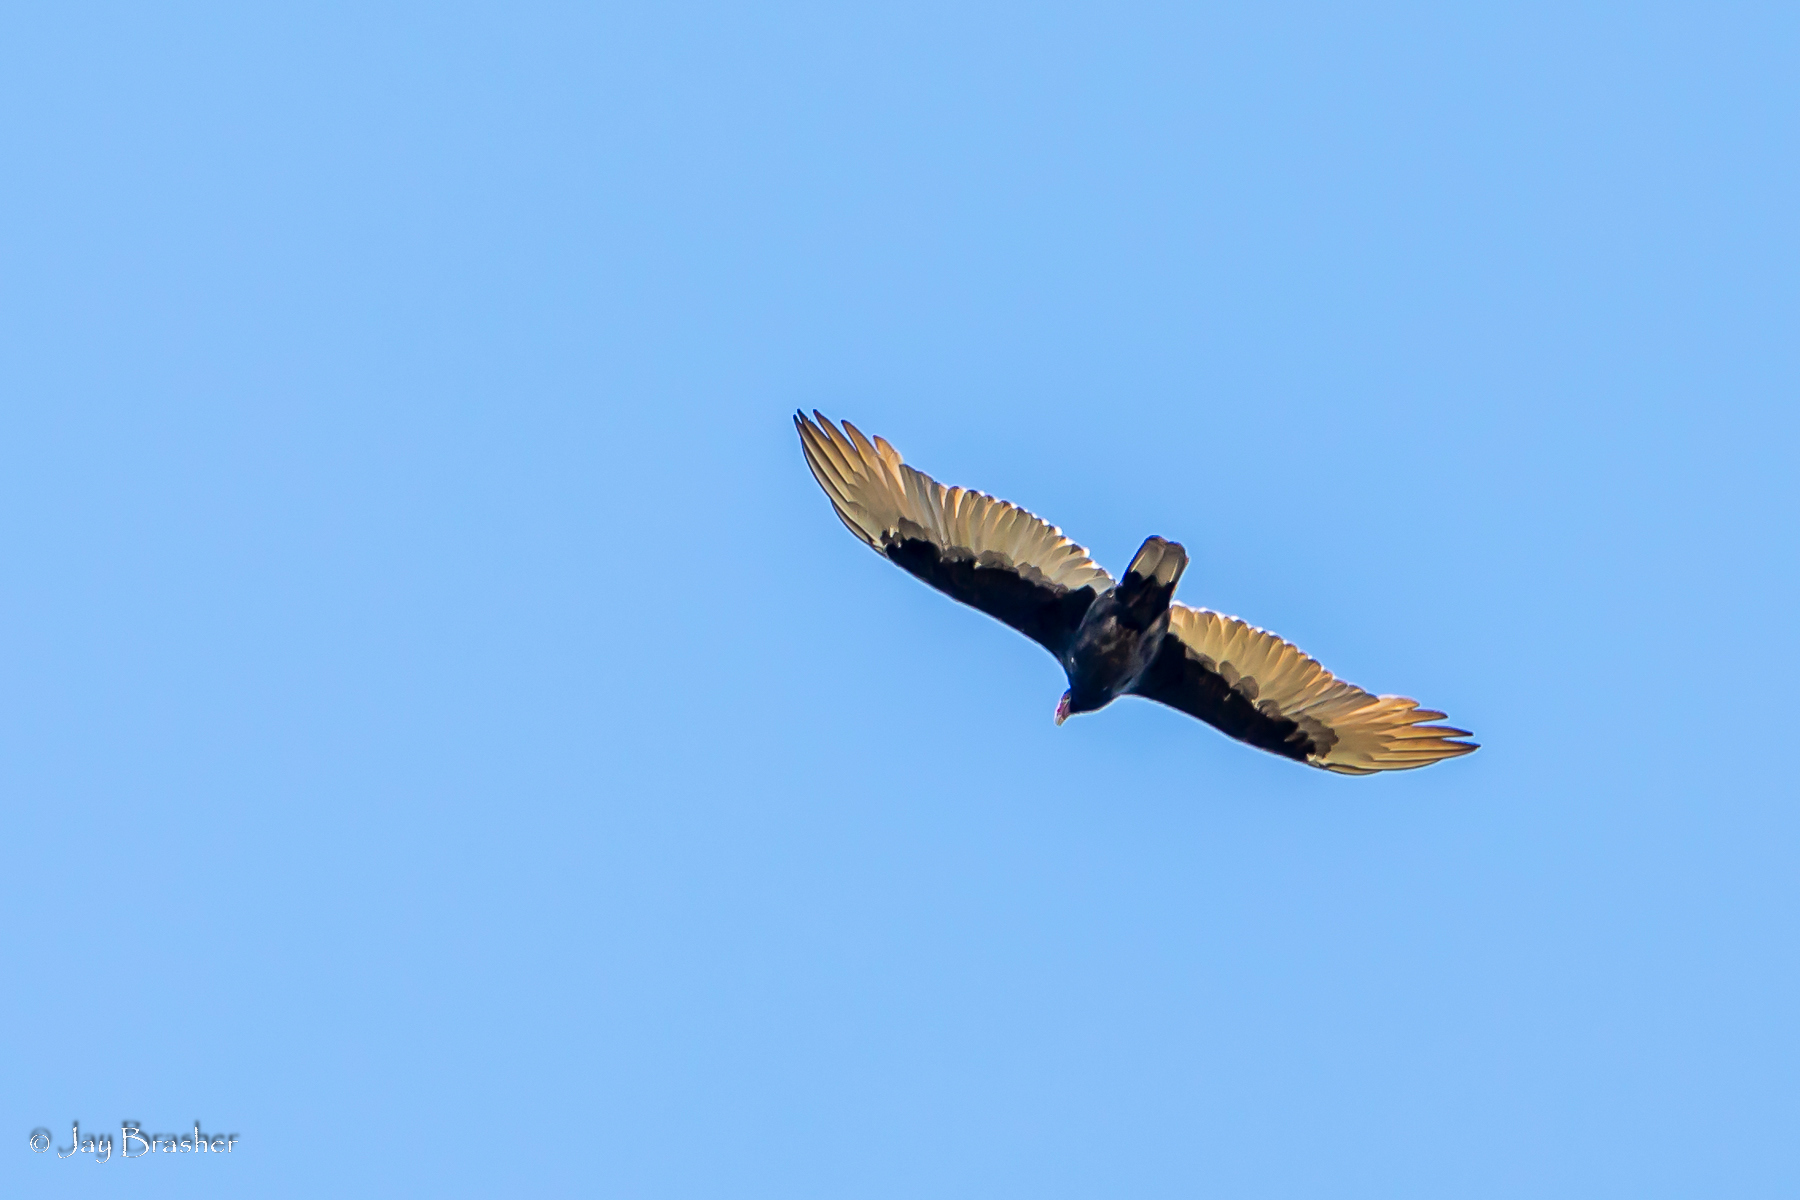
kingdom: Animalia
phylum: Chordata
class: Aves
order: Accipitriformes
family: Cathartidae
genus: Cathartes
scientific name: Cathartes aura
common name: Turkey vulture
